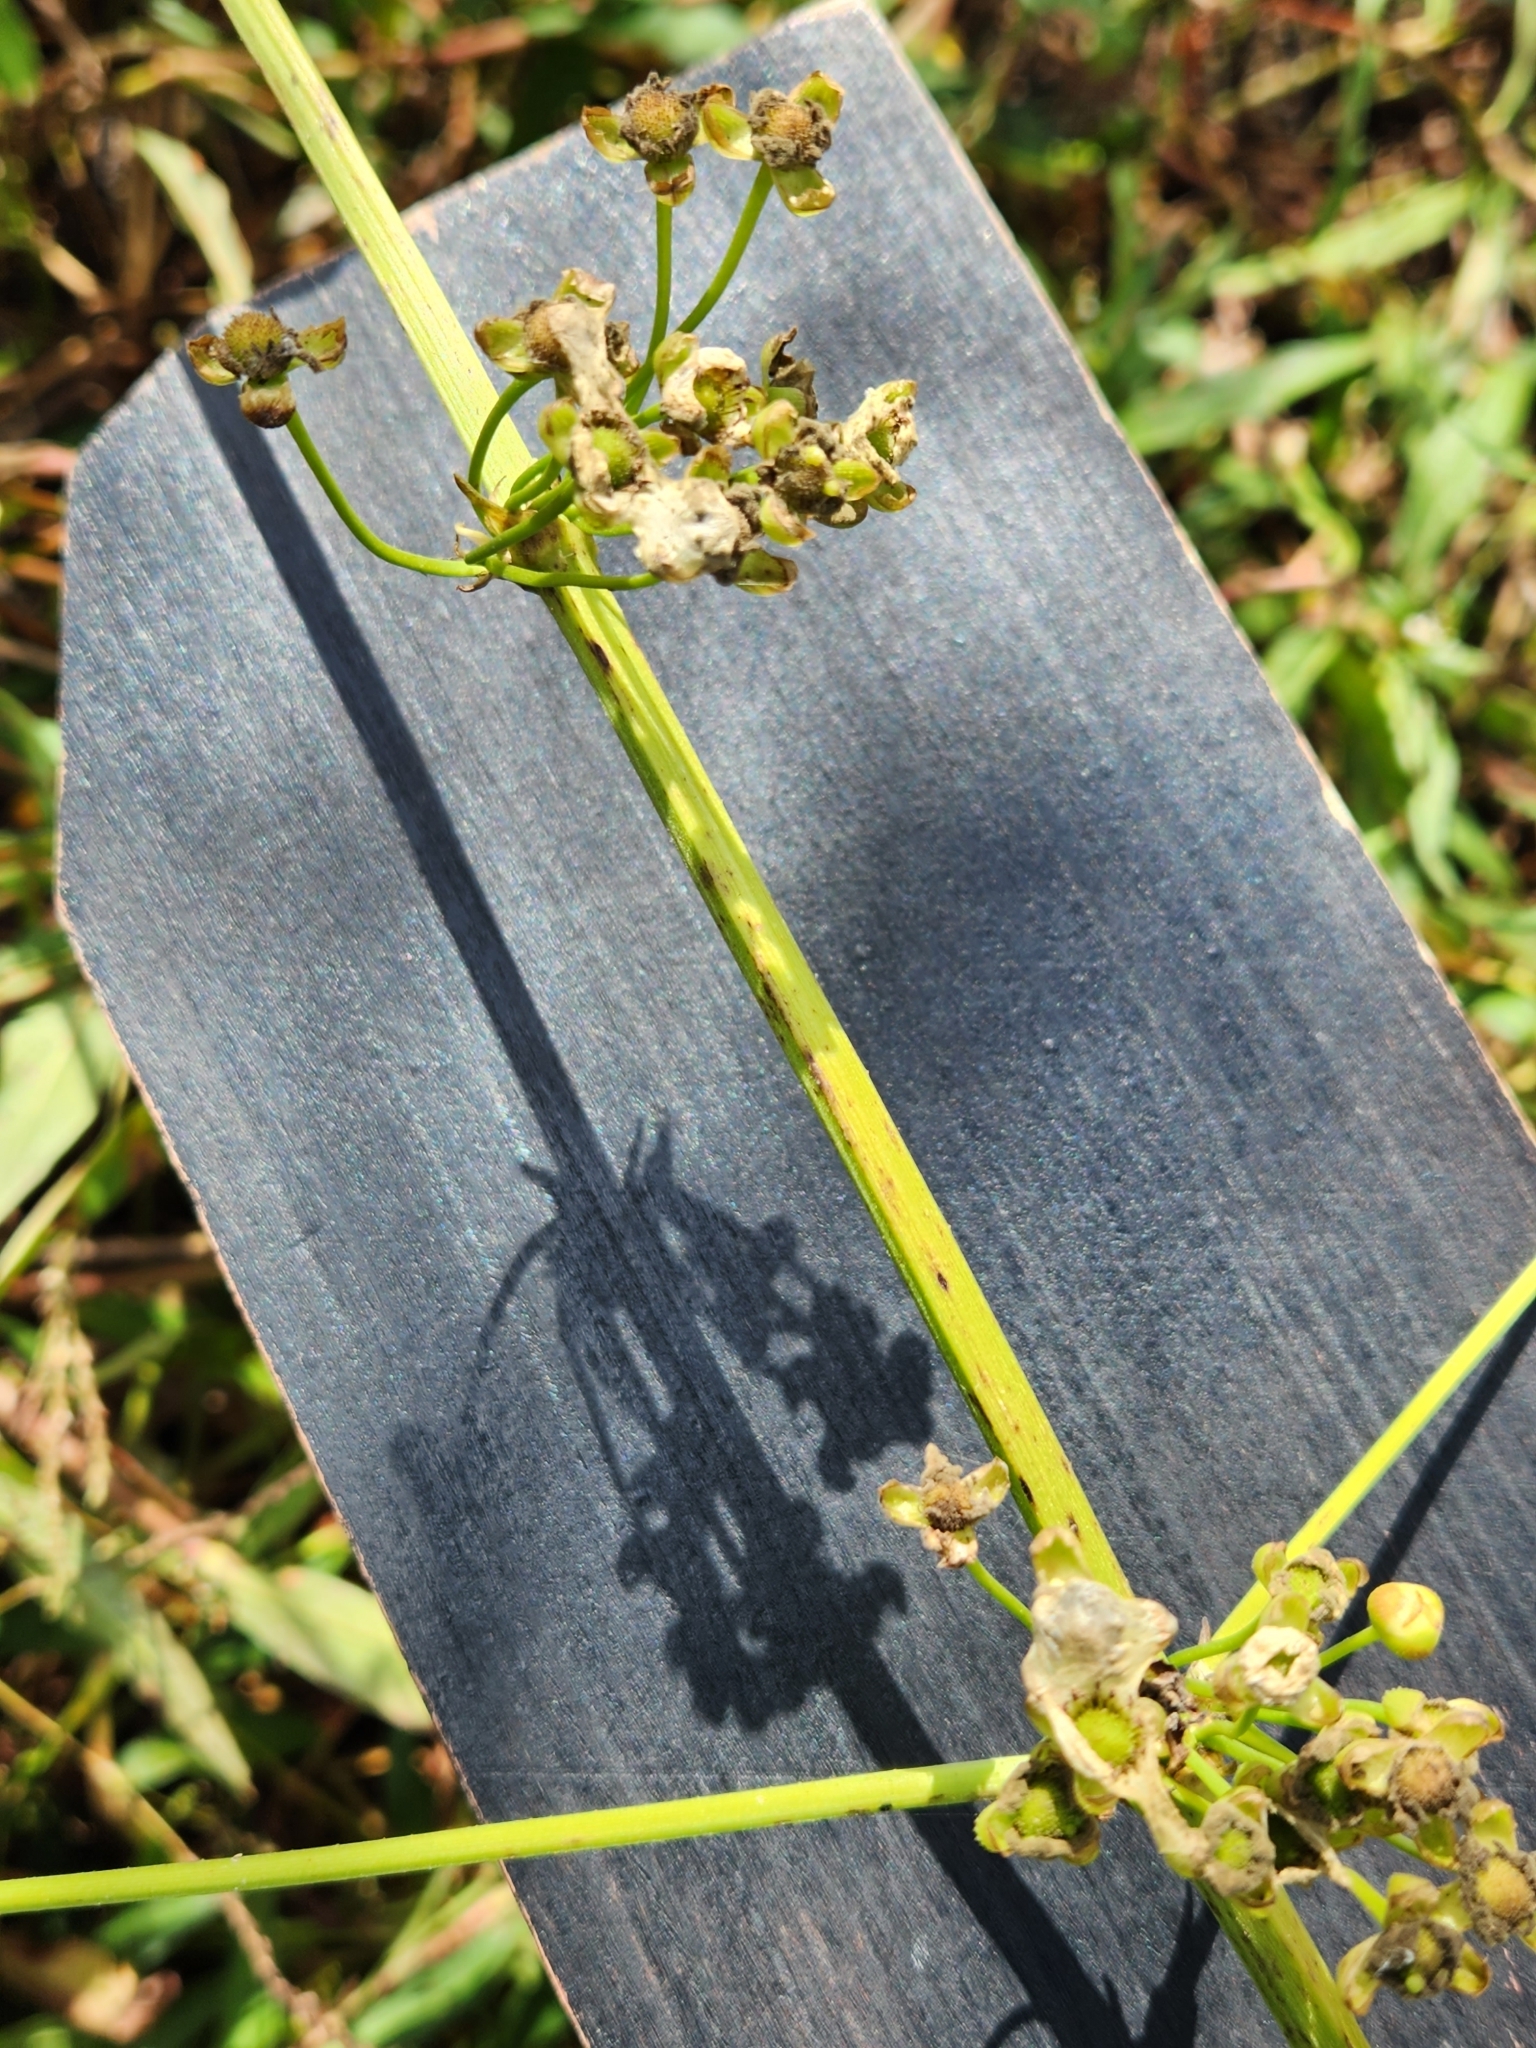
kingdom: Plantae
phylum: Tracheophyta
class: Liliopsida
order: Alismatales
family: Alismataceae
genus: Aquarius
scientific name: Aquarius cordifolius
